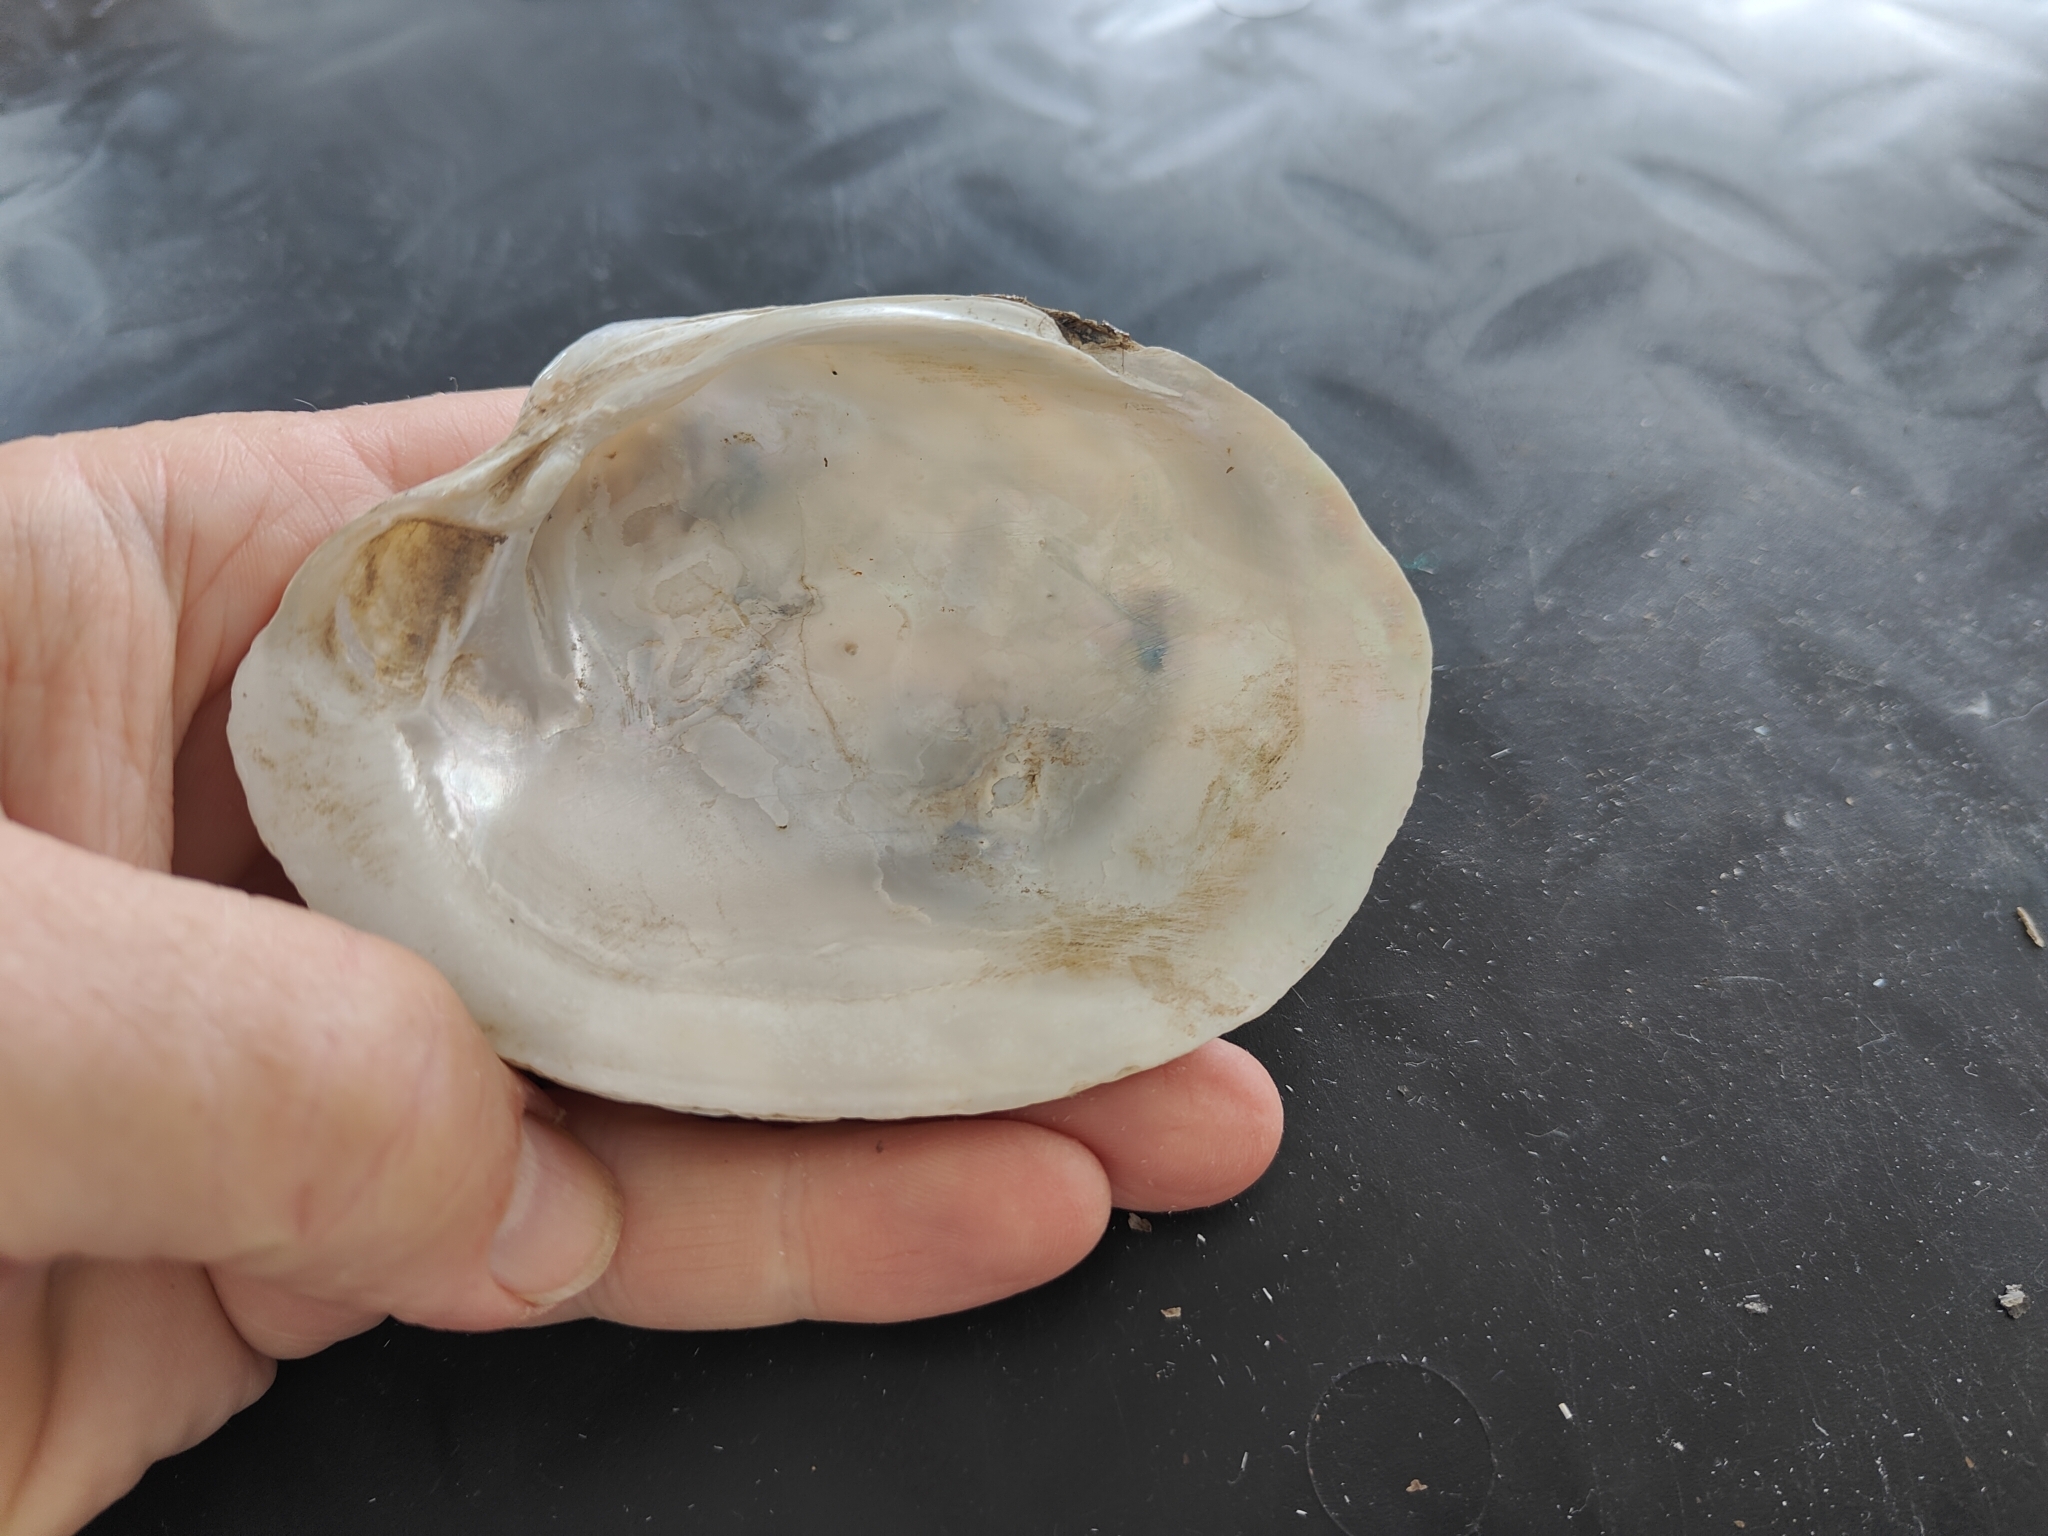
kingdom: Animalia
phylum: Mollusca
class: Bivalvia
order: Unionida
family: Unionidae
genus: Lampsilis
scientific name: Lampsilis cardium
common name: Plain pocketbook
